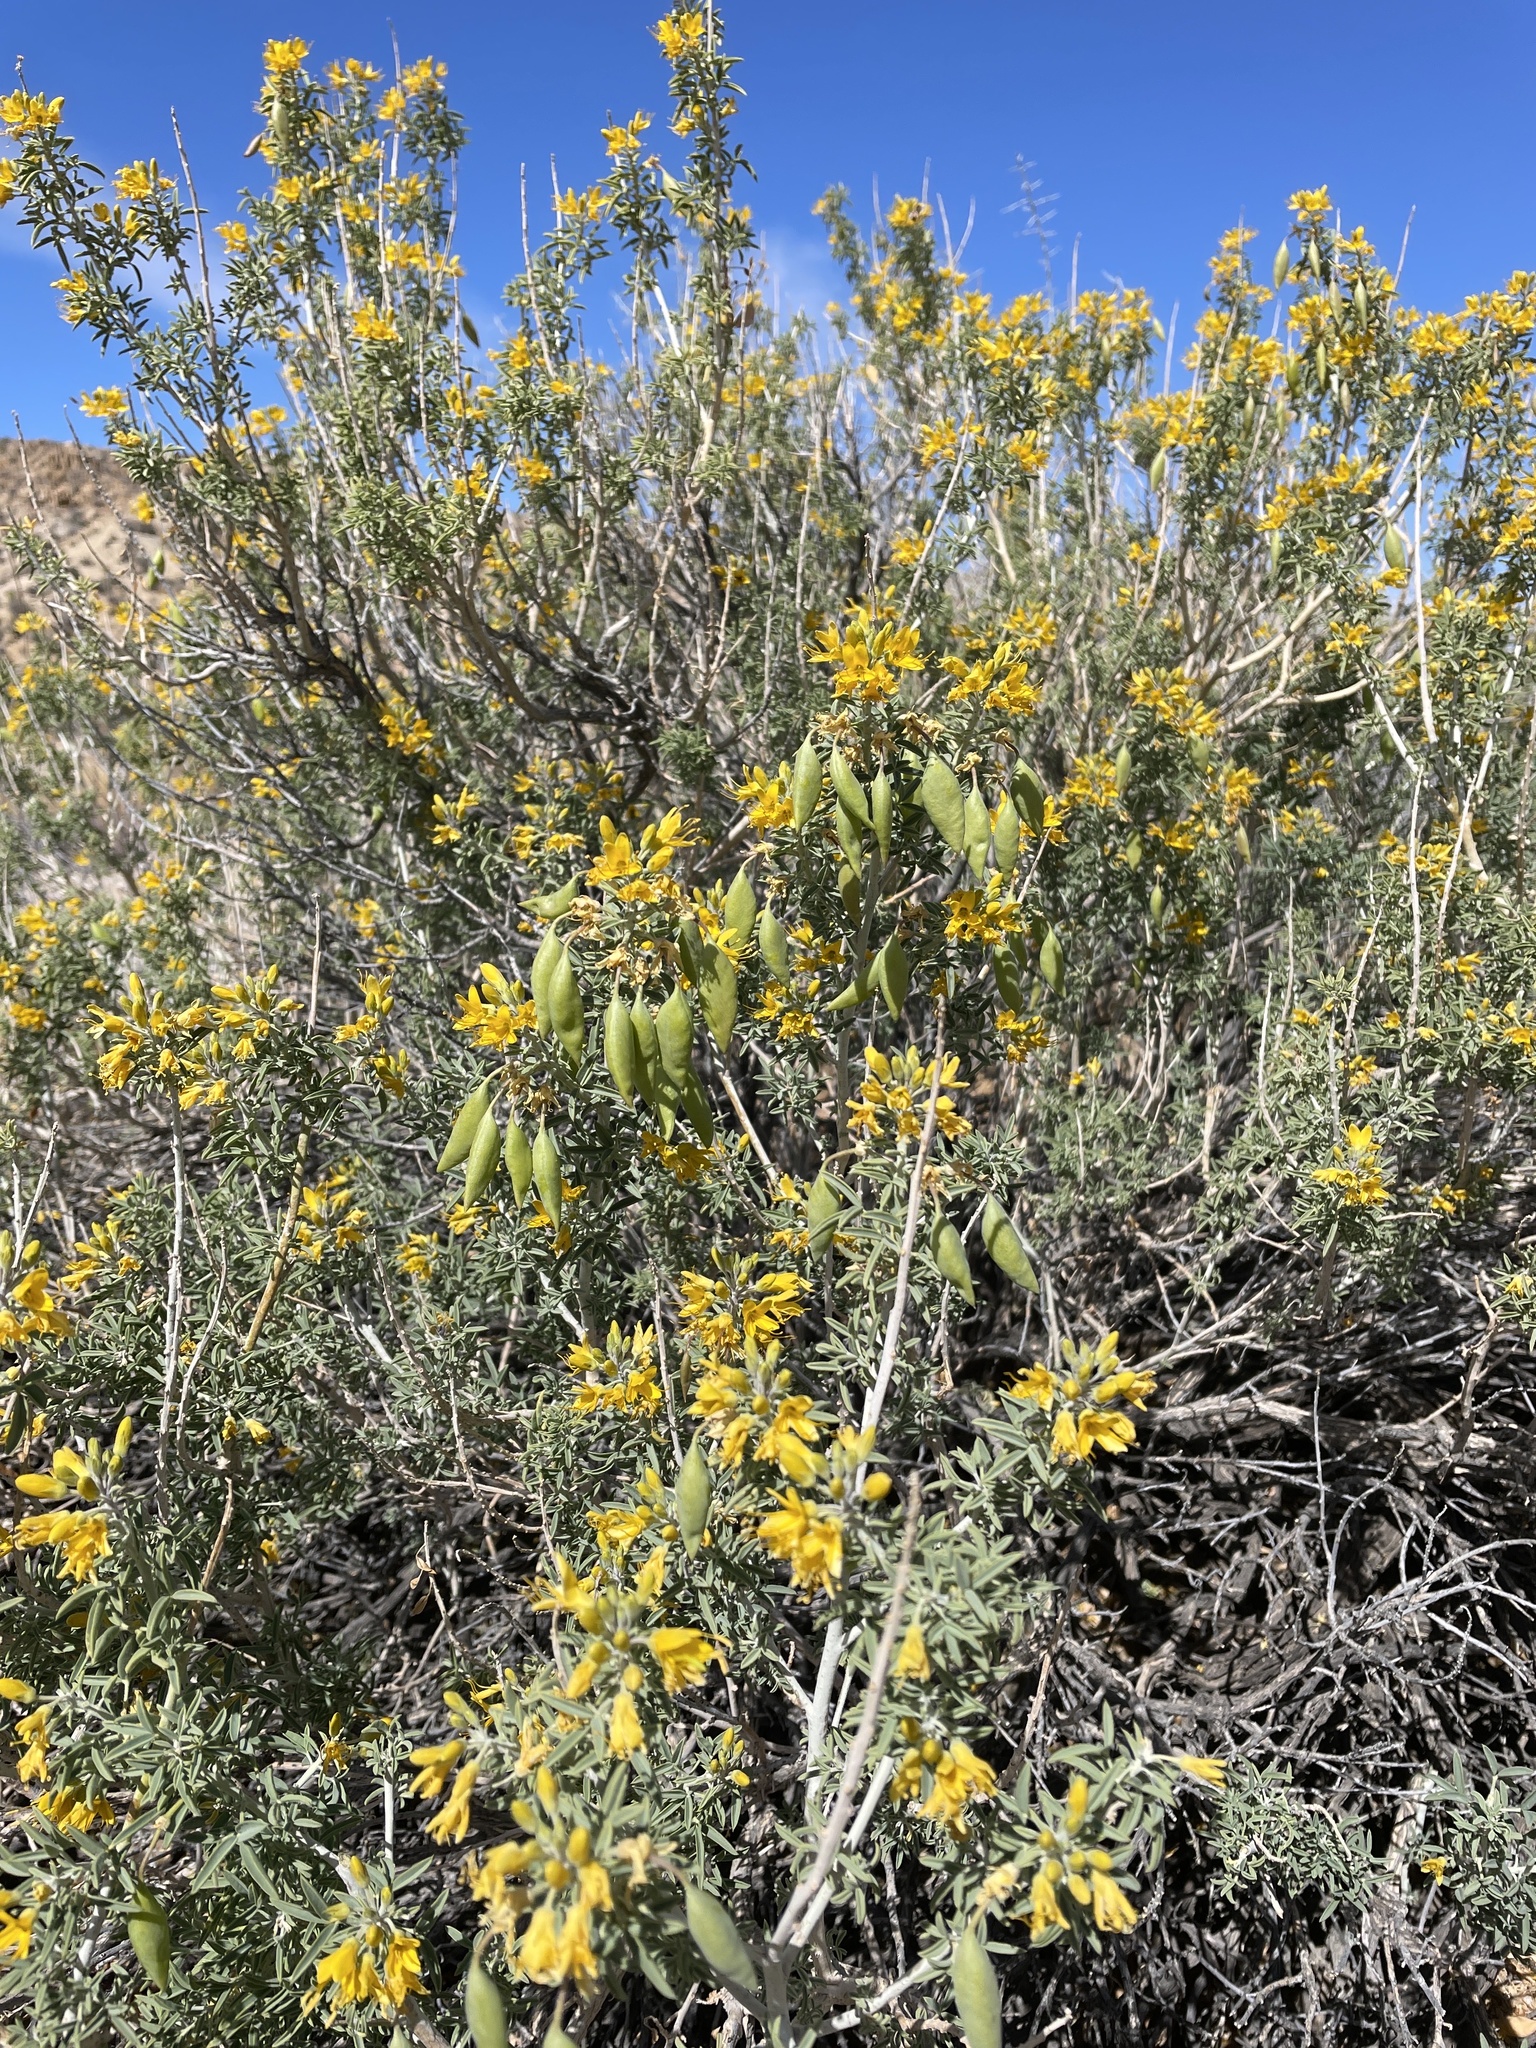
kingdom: Plantae
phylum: Tracheophyta
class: Magnoliopsida
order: Brassicales
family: Cleomaceae
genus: Cleomella
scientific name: Cleomella arborea
